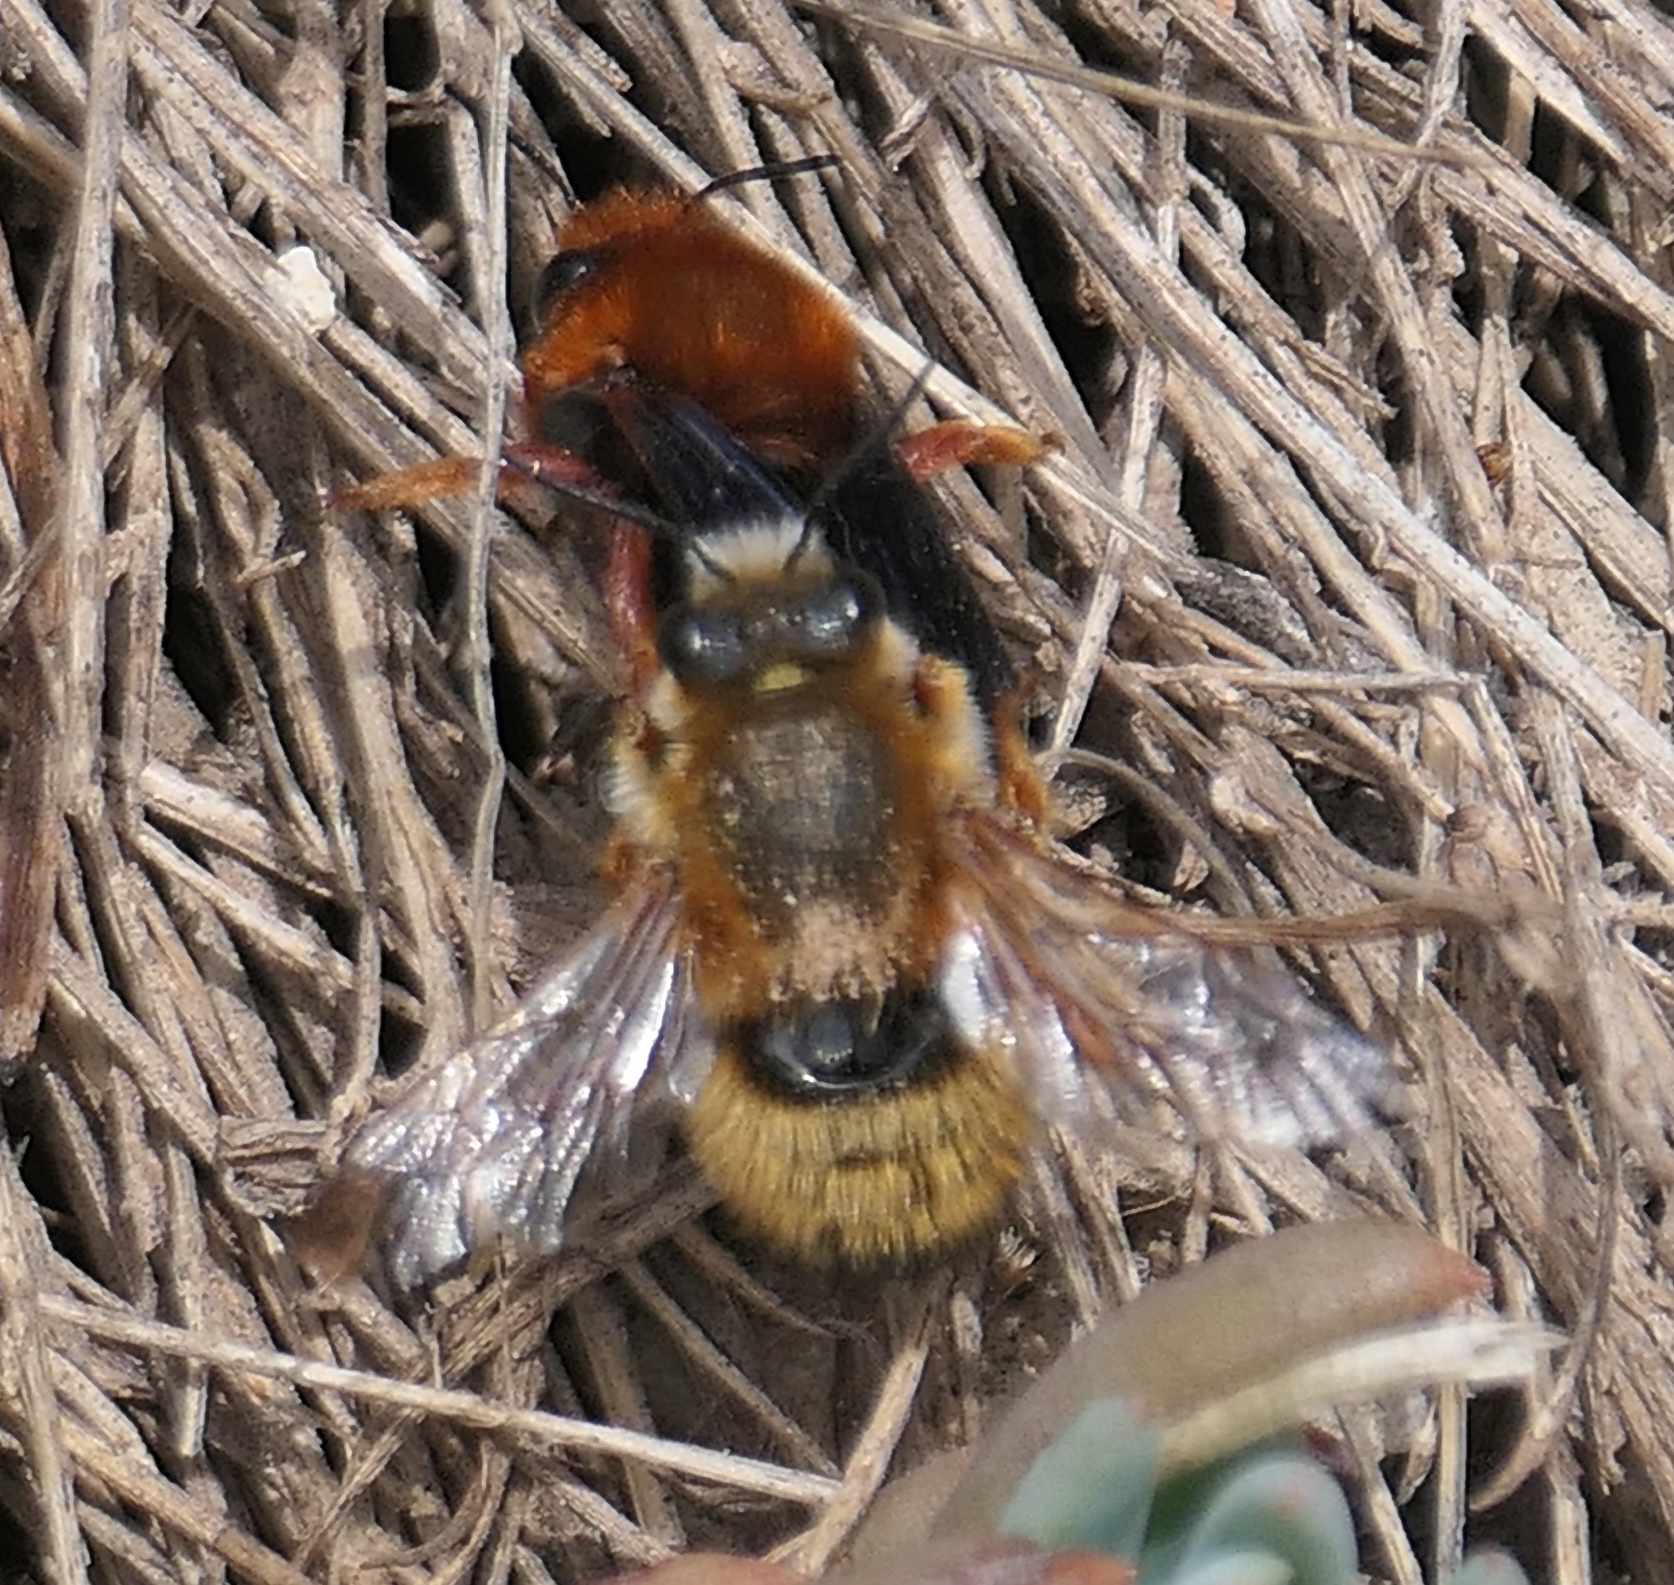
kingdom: Animalia
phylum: Arthropoda
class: Insecta
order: Hymenoptera
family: Megachilidae
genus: Megachile
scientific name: Megachile sicula
